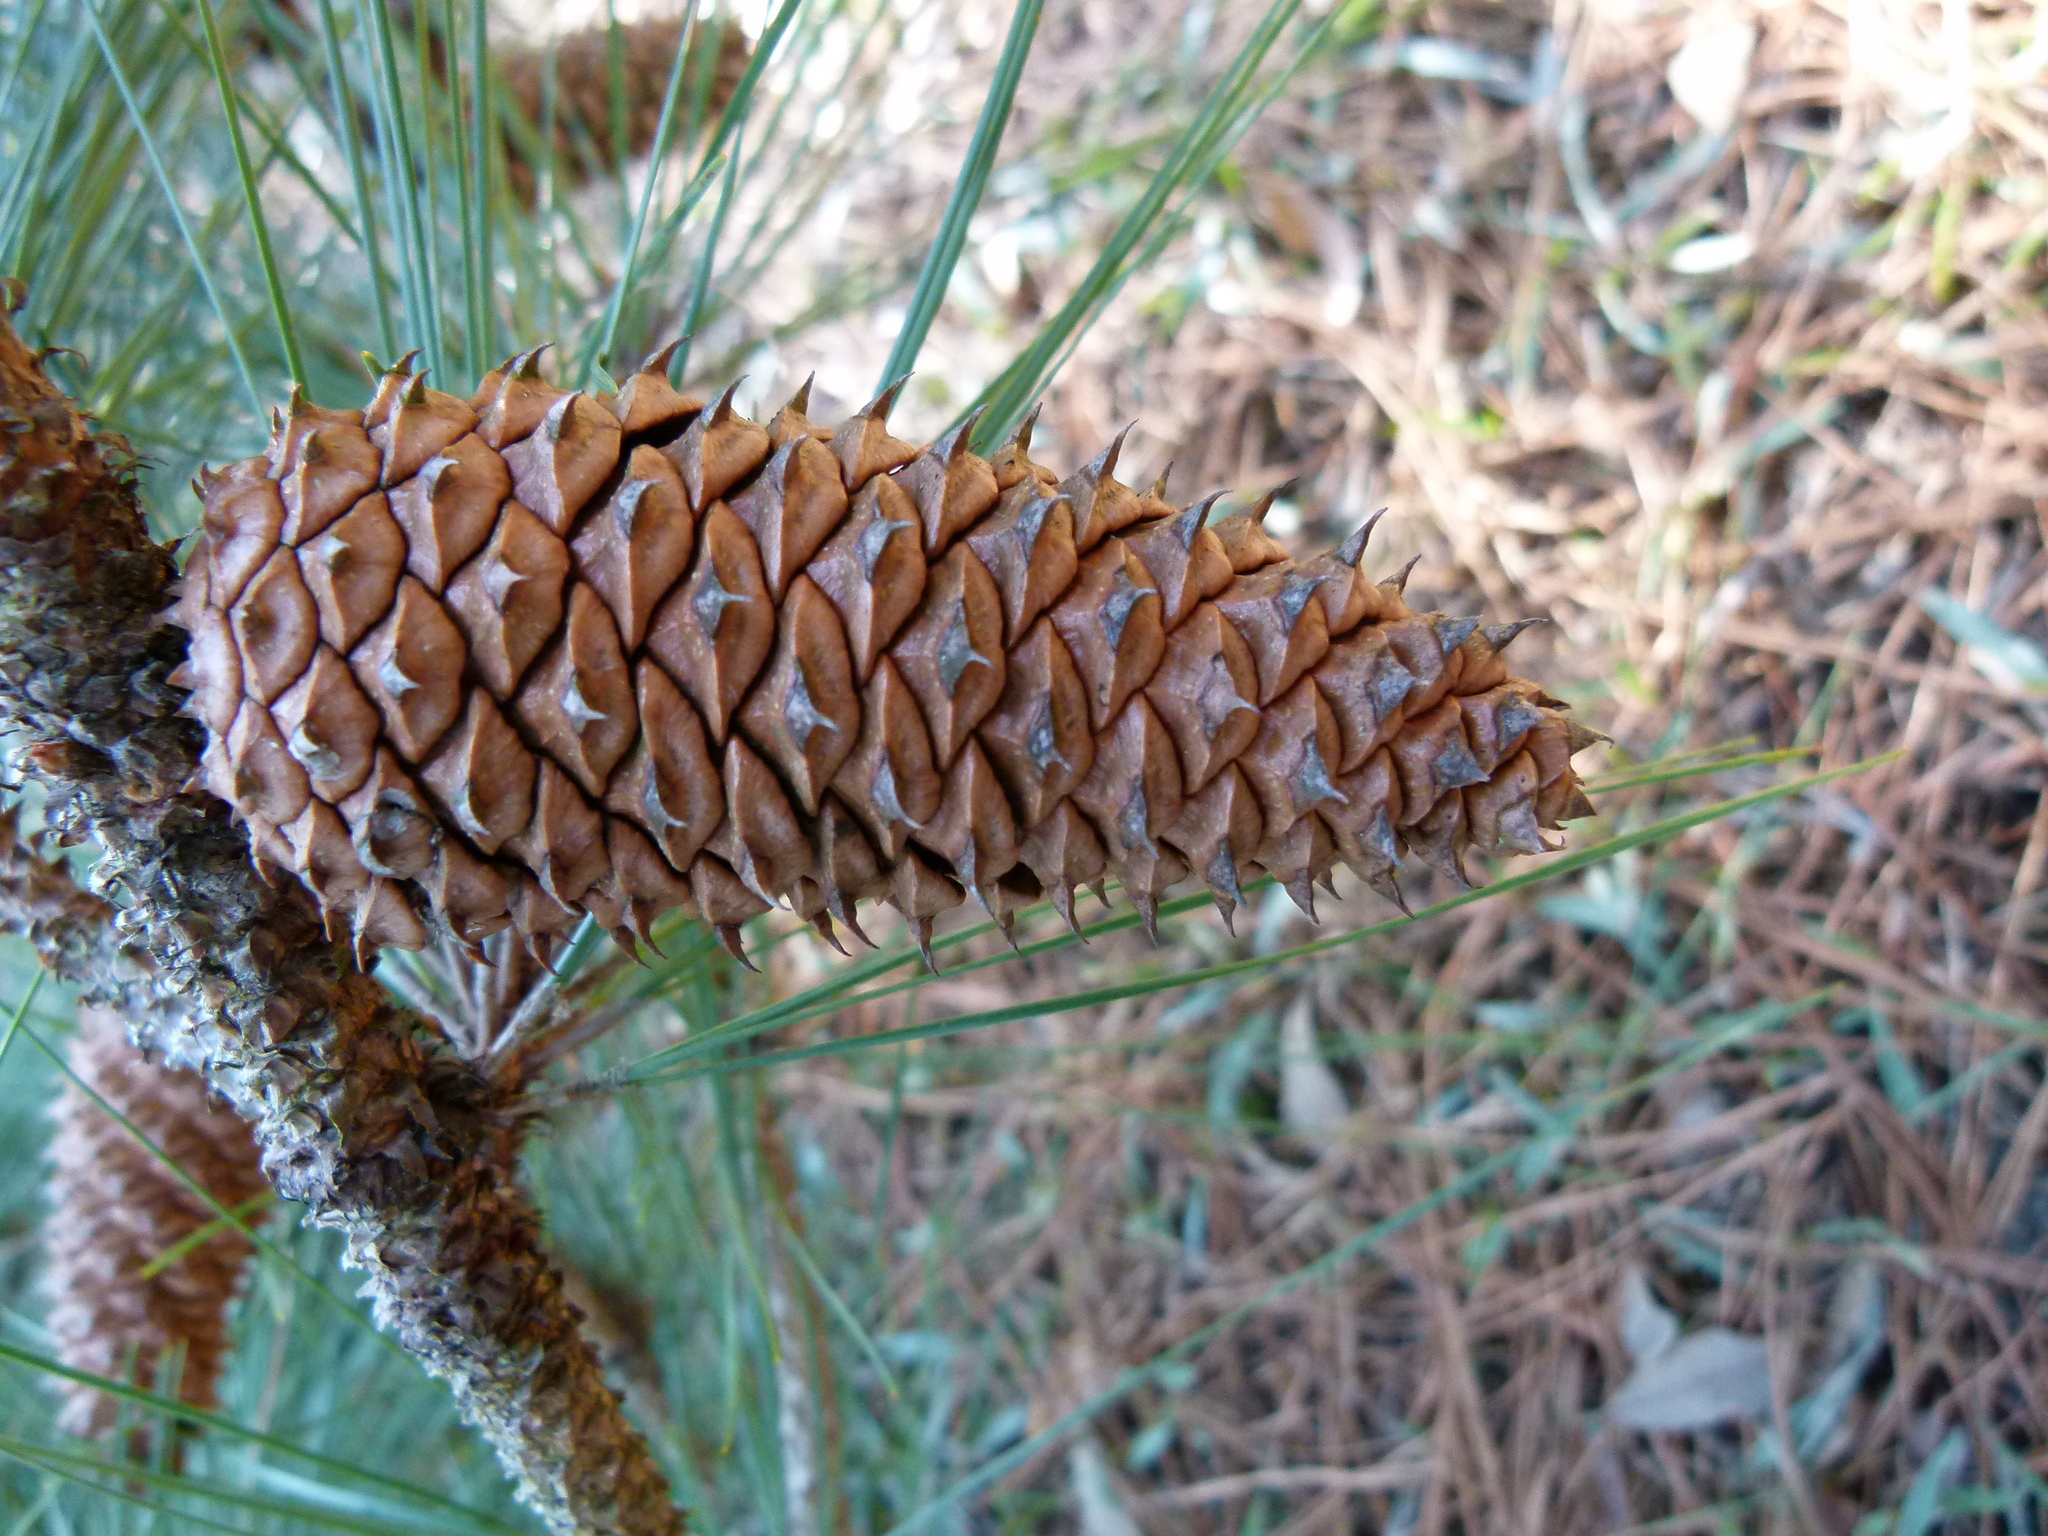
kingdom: Plantae
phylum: Tracheophyta
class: Pinopsida
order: Pinales
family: Pinaceae
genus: Pinus
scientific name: Pinus taeda
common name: Loblolly pine
